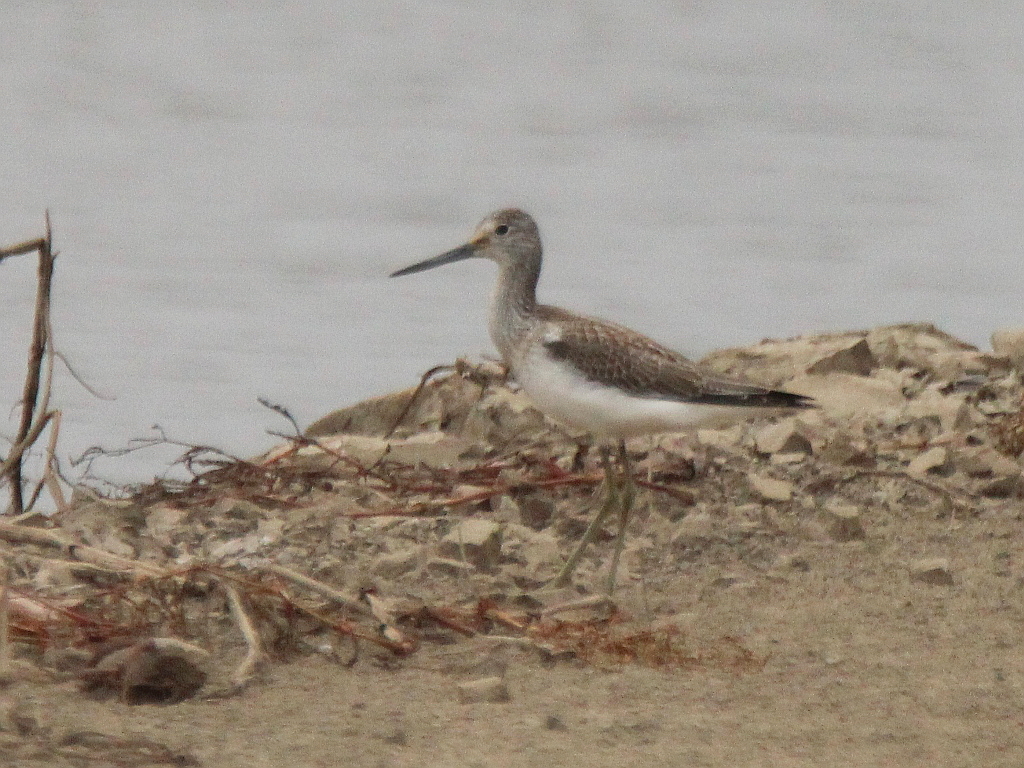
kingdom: Animalia
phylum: Chordata
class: Aves
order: Charadriiformes
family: Scolopacidae
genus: Tringa
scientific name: Tringa nebularia
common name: Common greenshank
